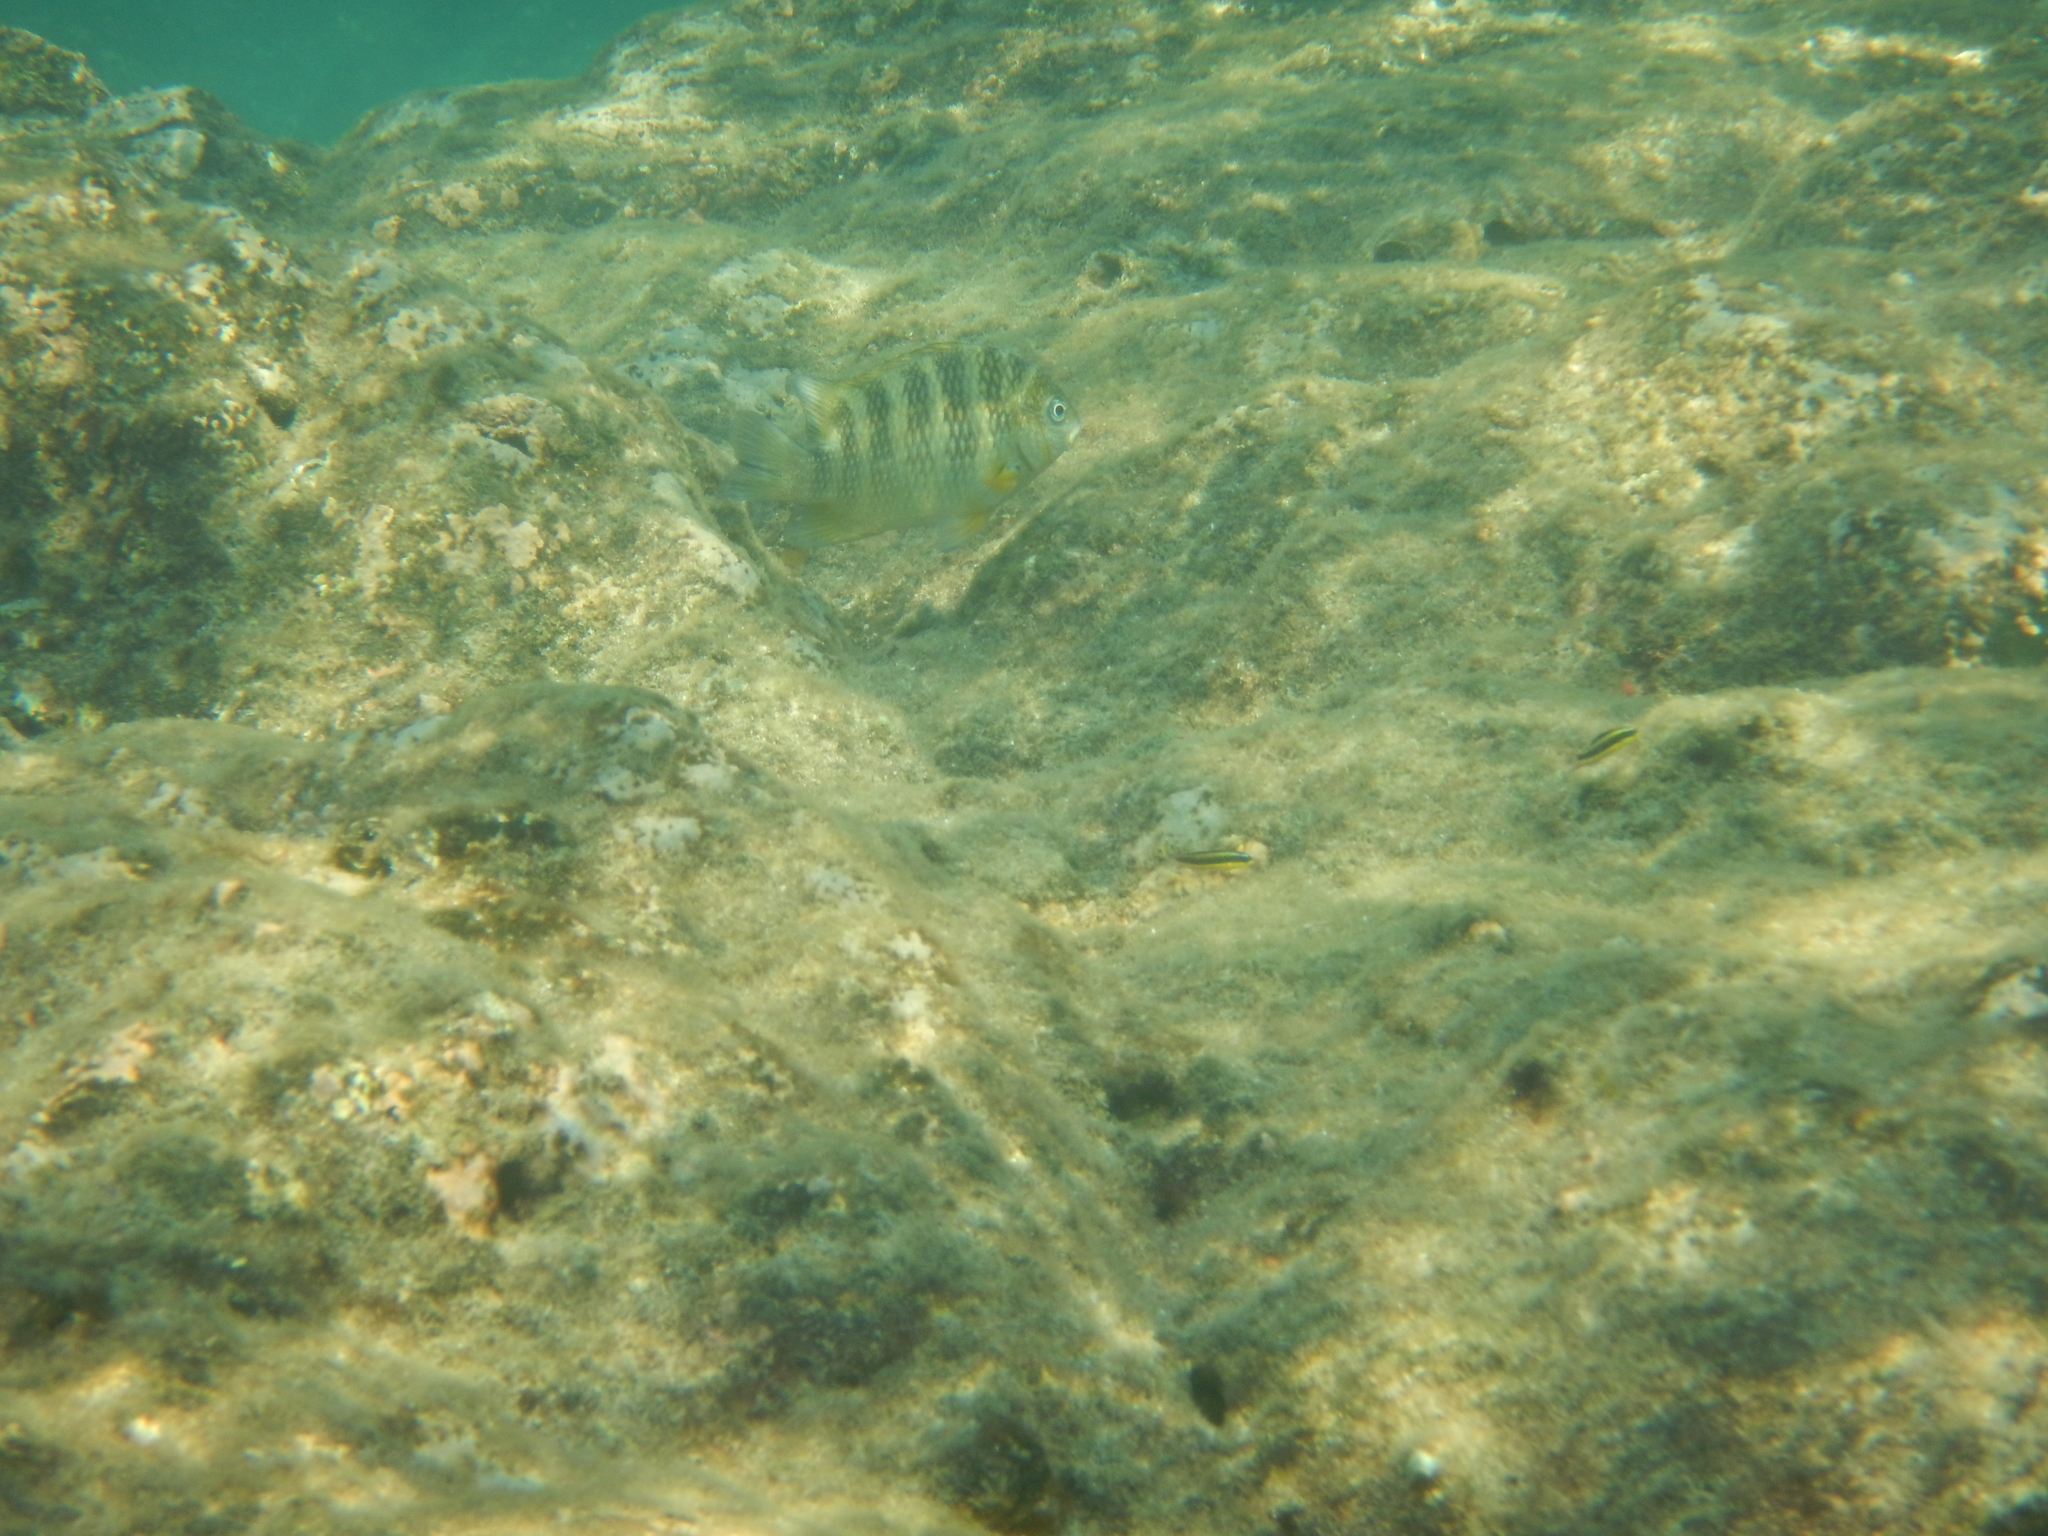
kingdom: Animalia
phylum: Chordata
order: Perciformes
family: Pomacentridae
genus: Abudefduf
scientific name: Abudefduf declivifrons
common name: Mexican night sergeant
